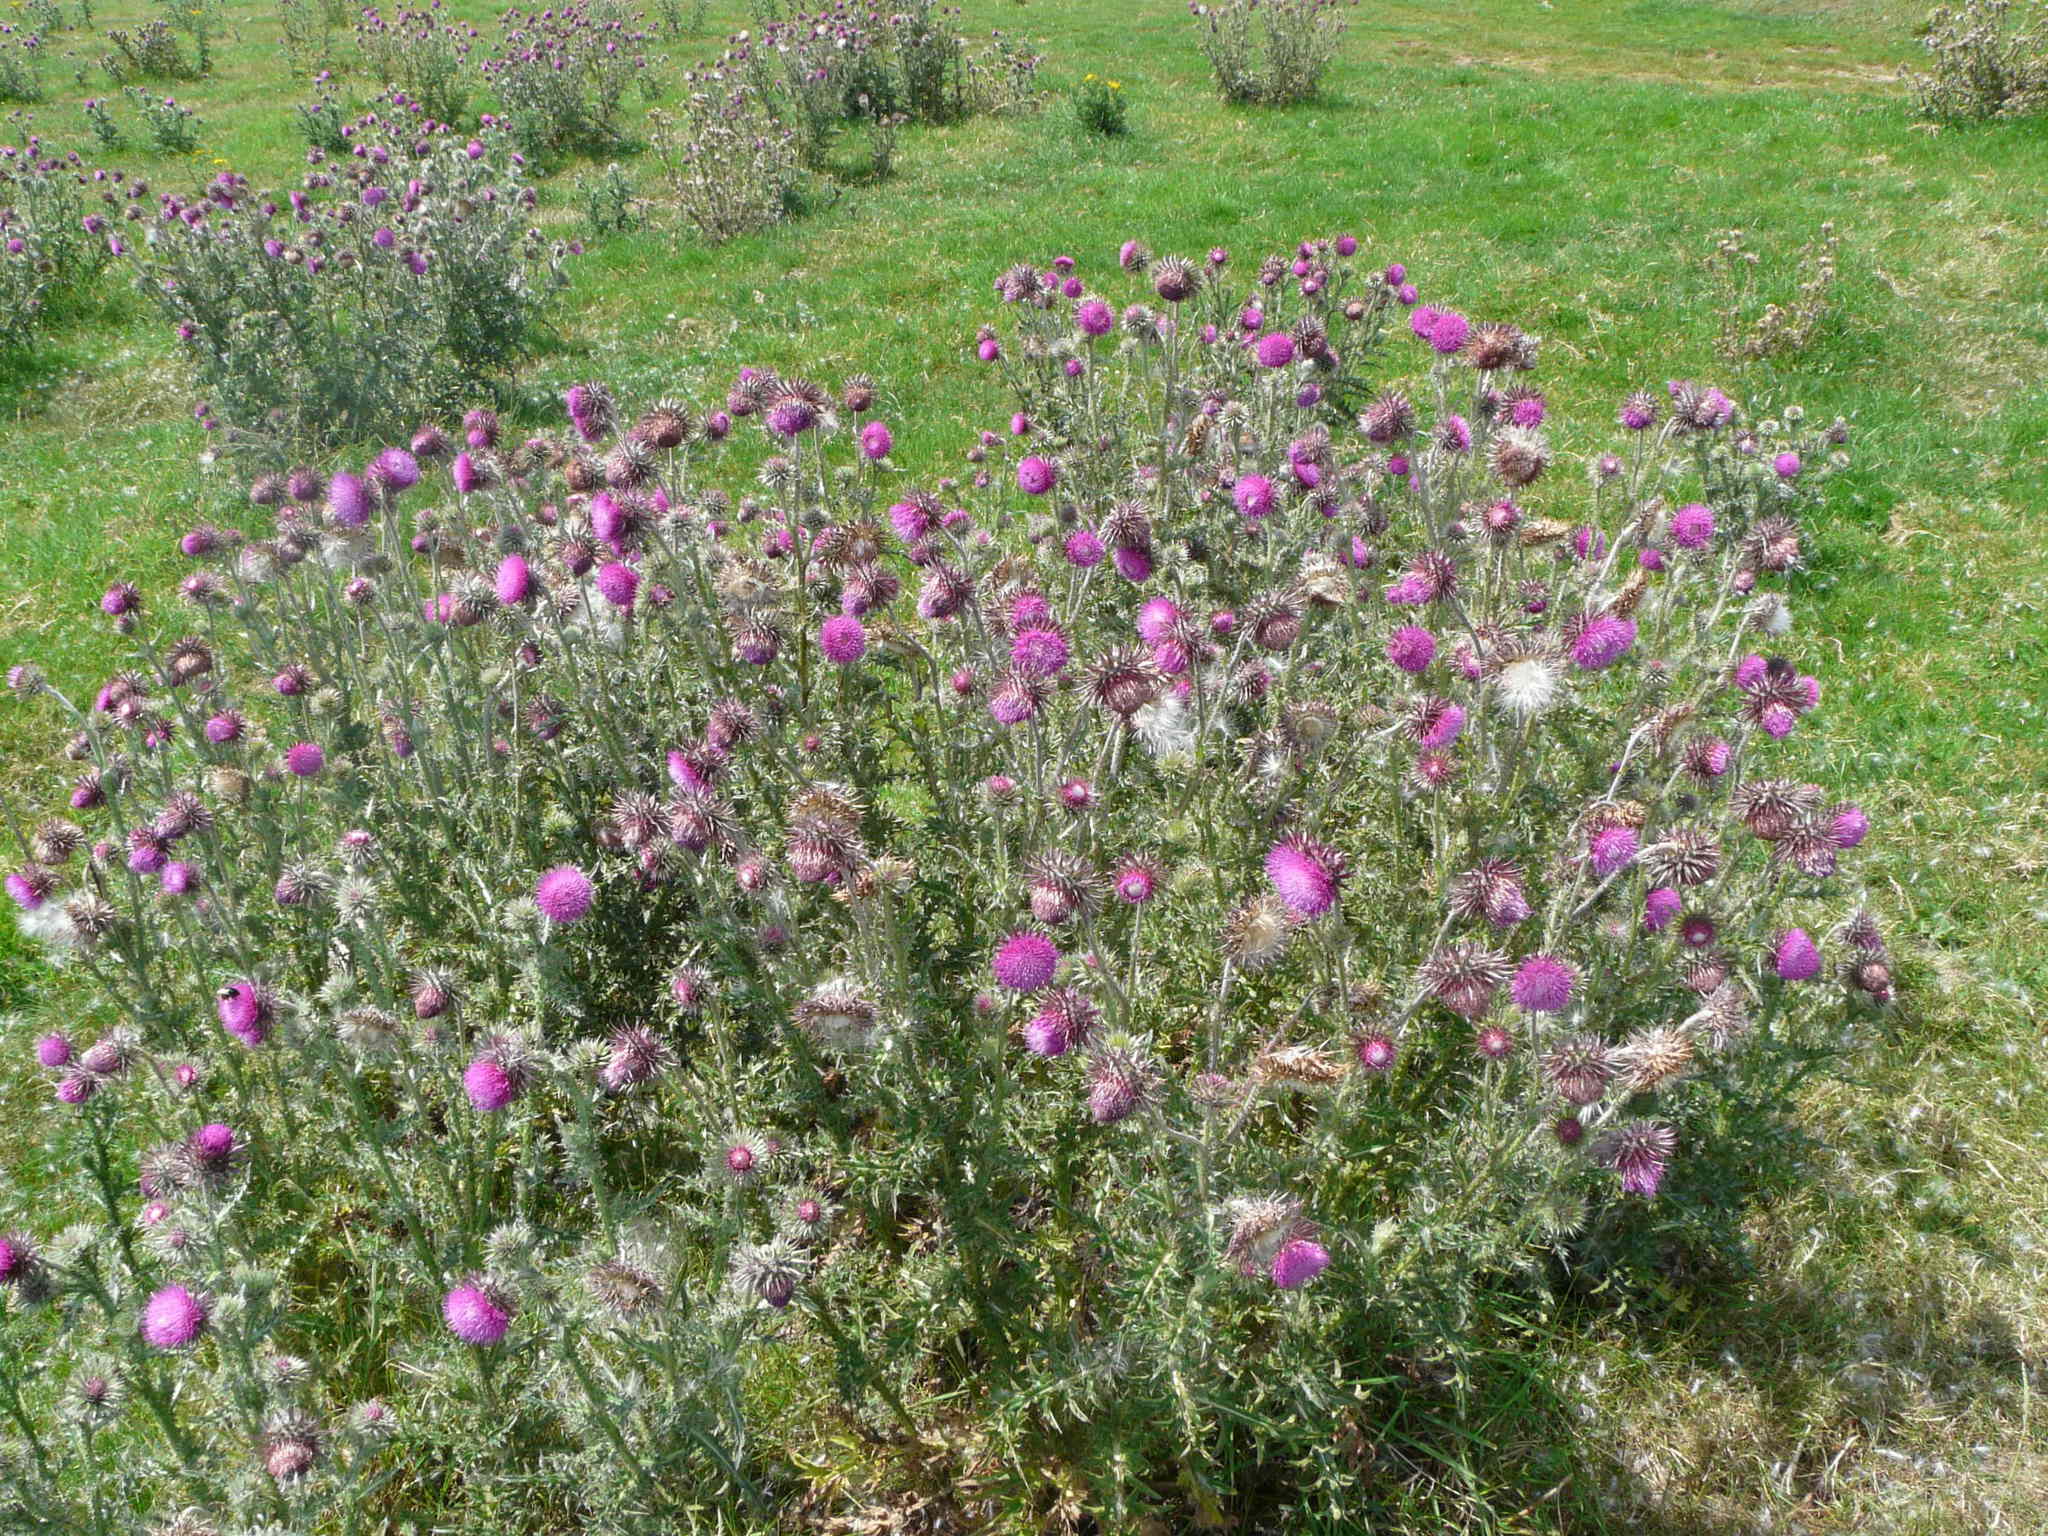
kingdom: Plantae
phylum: Tracheophyta
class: Magnoliopsida
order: Asterales
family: Asteraceae
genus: Carduus
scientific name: Carduus nutans
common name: Musk thistle
